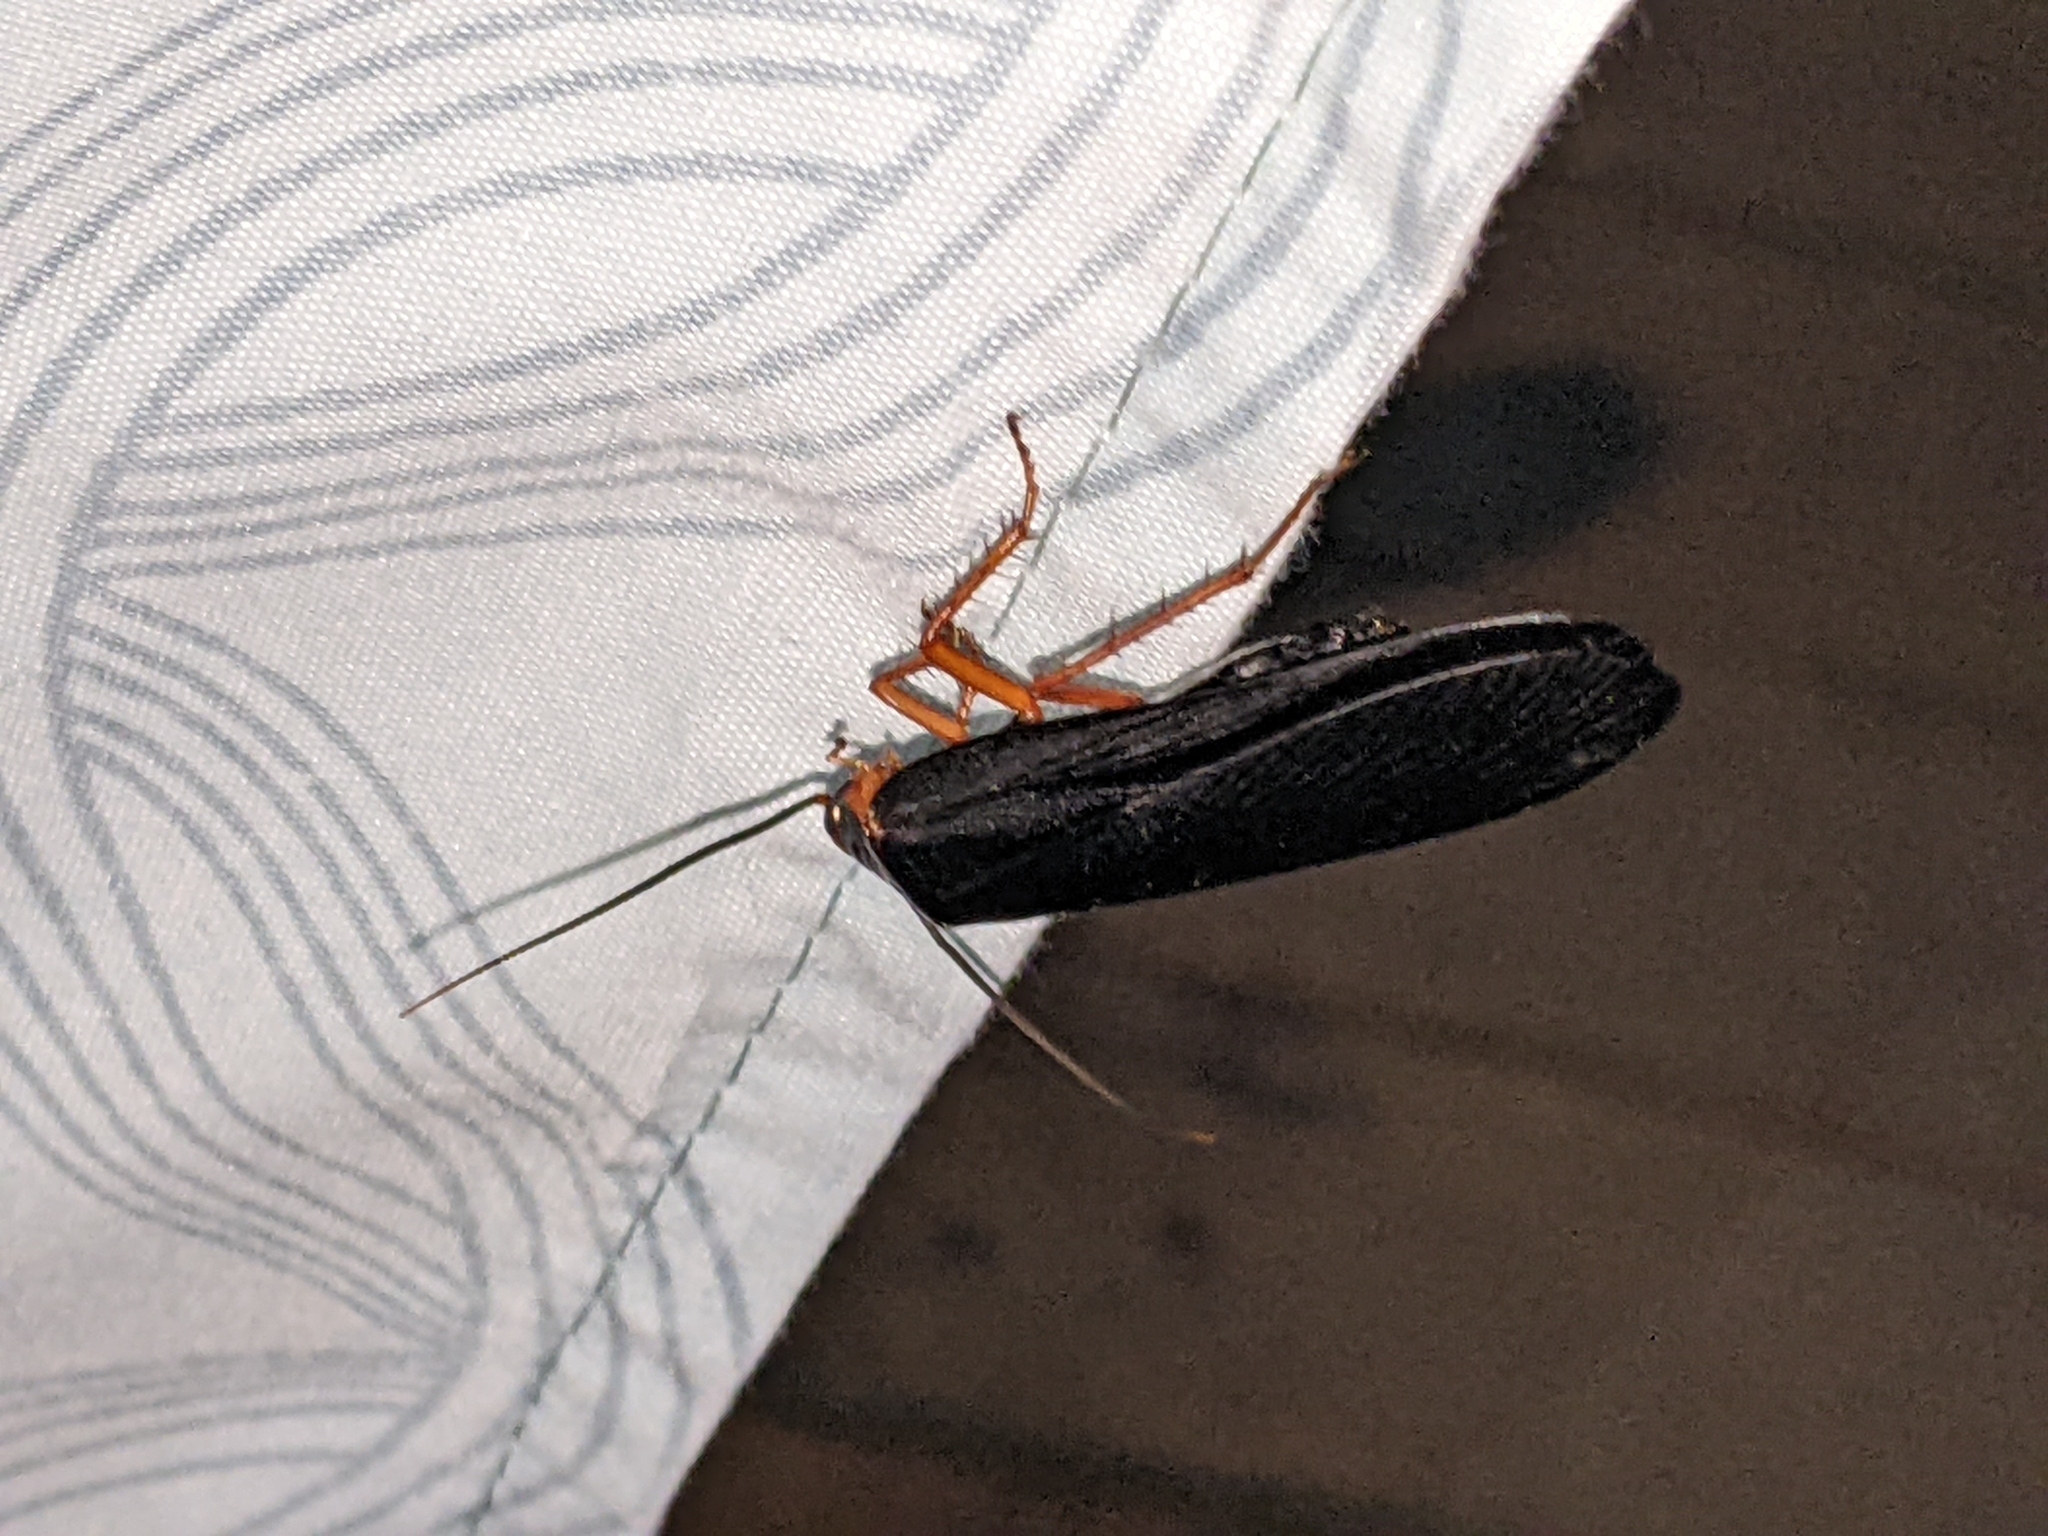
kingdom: Animalia
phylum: Arthropoda
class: Insecta
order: Blattodea
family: Blattidae
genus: Deropeltis
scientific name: Deropeltis erythrocephala
